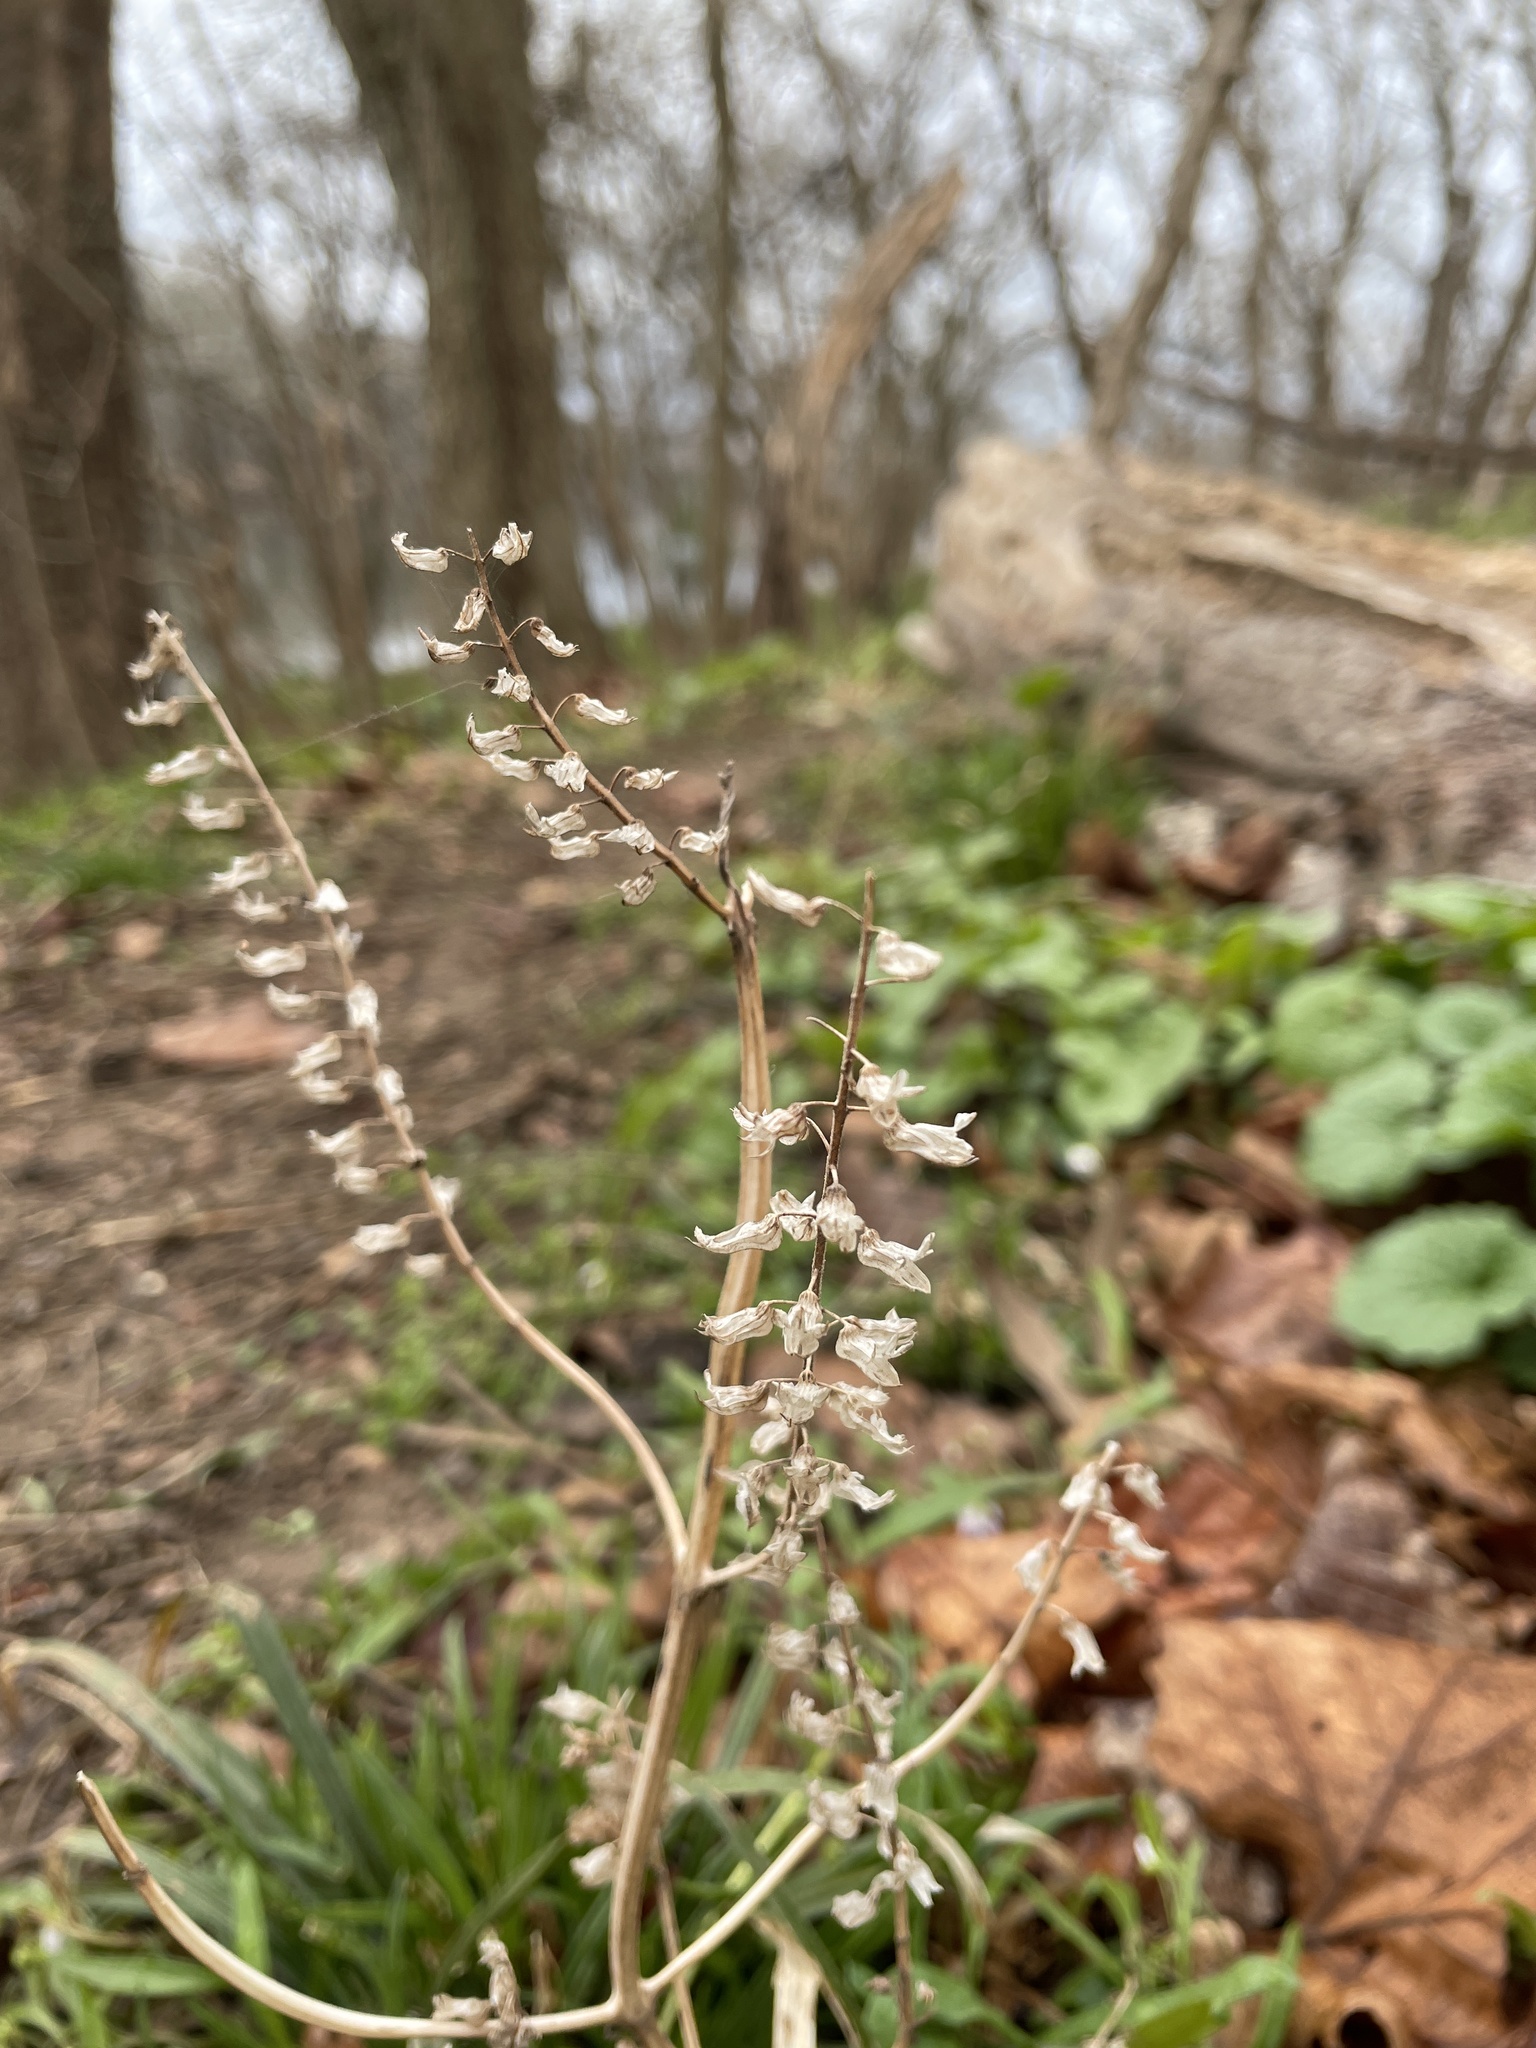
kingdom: Plantae
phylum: Tracheophyta
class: Magnoliopsida
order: Lamiales
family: Lamiaceae
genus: Perilla
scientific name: Perilla frutescens
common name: Perilla
